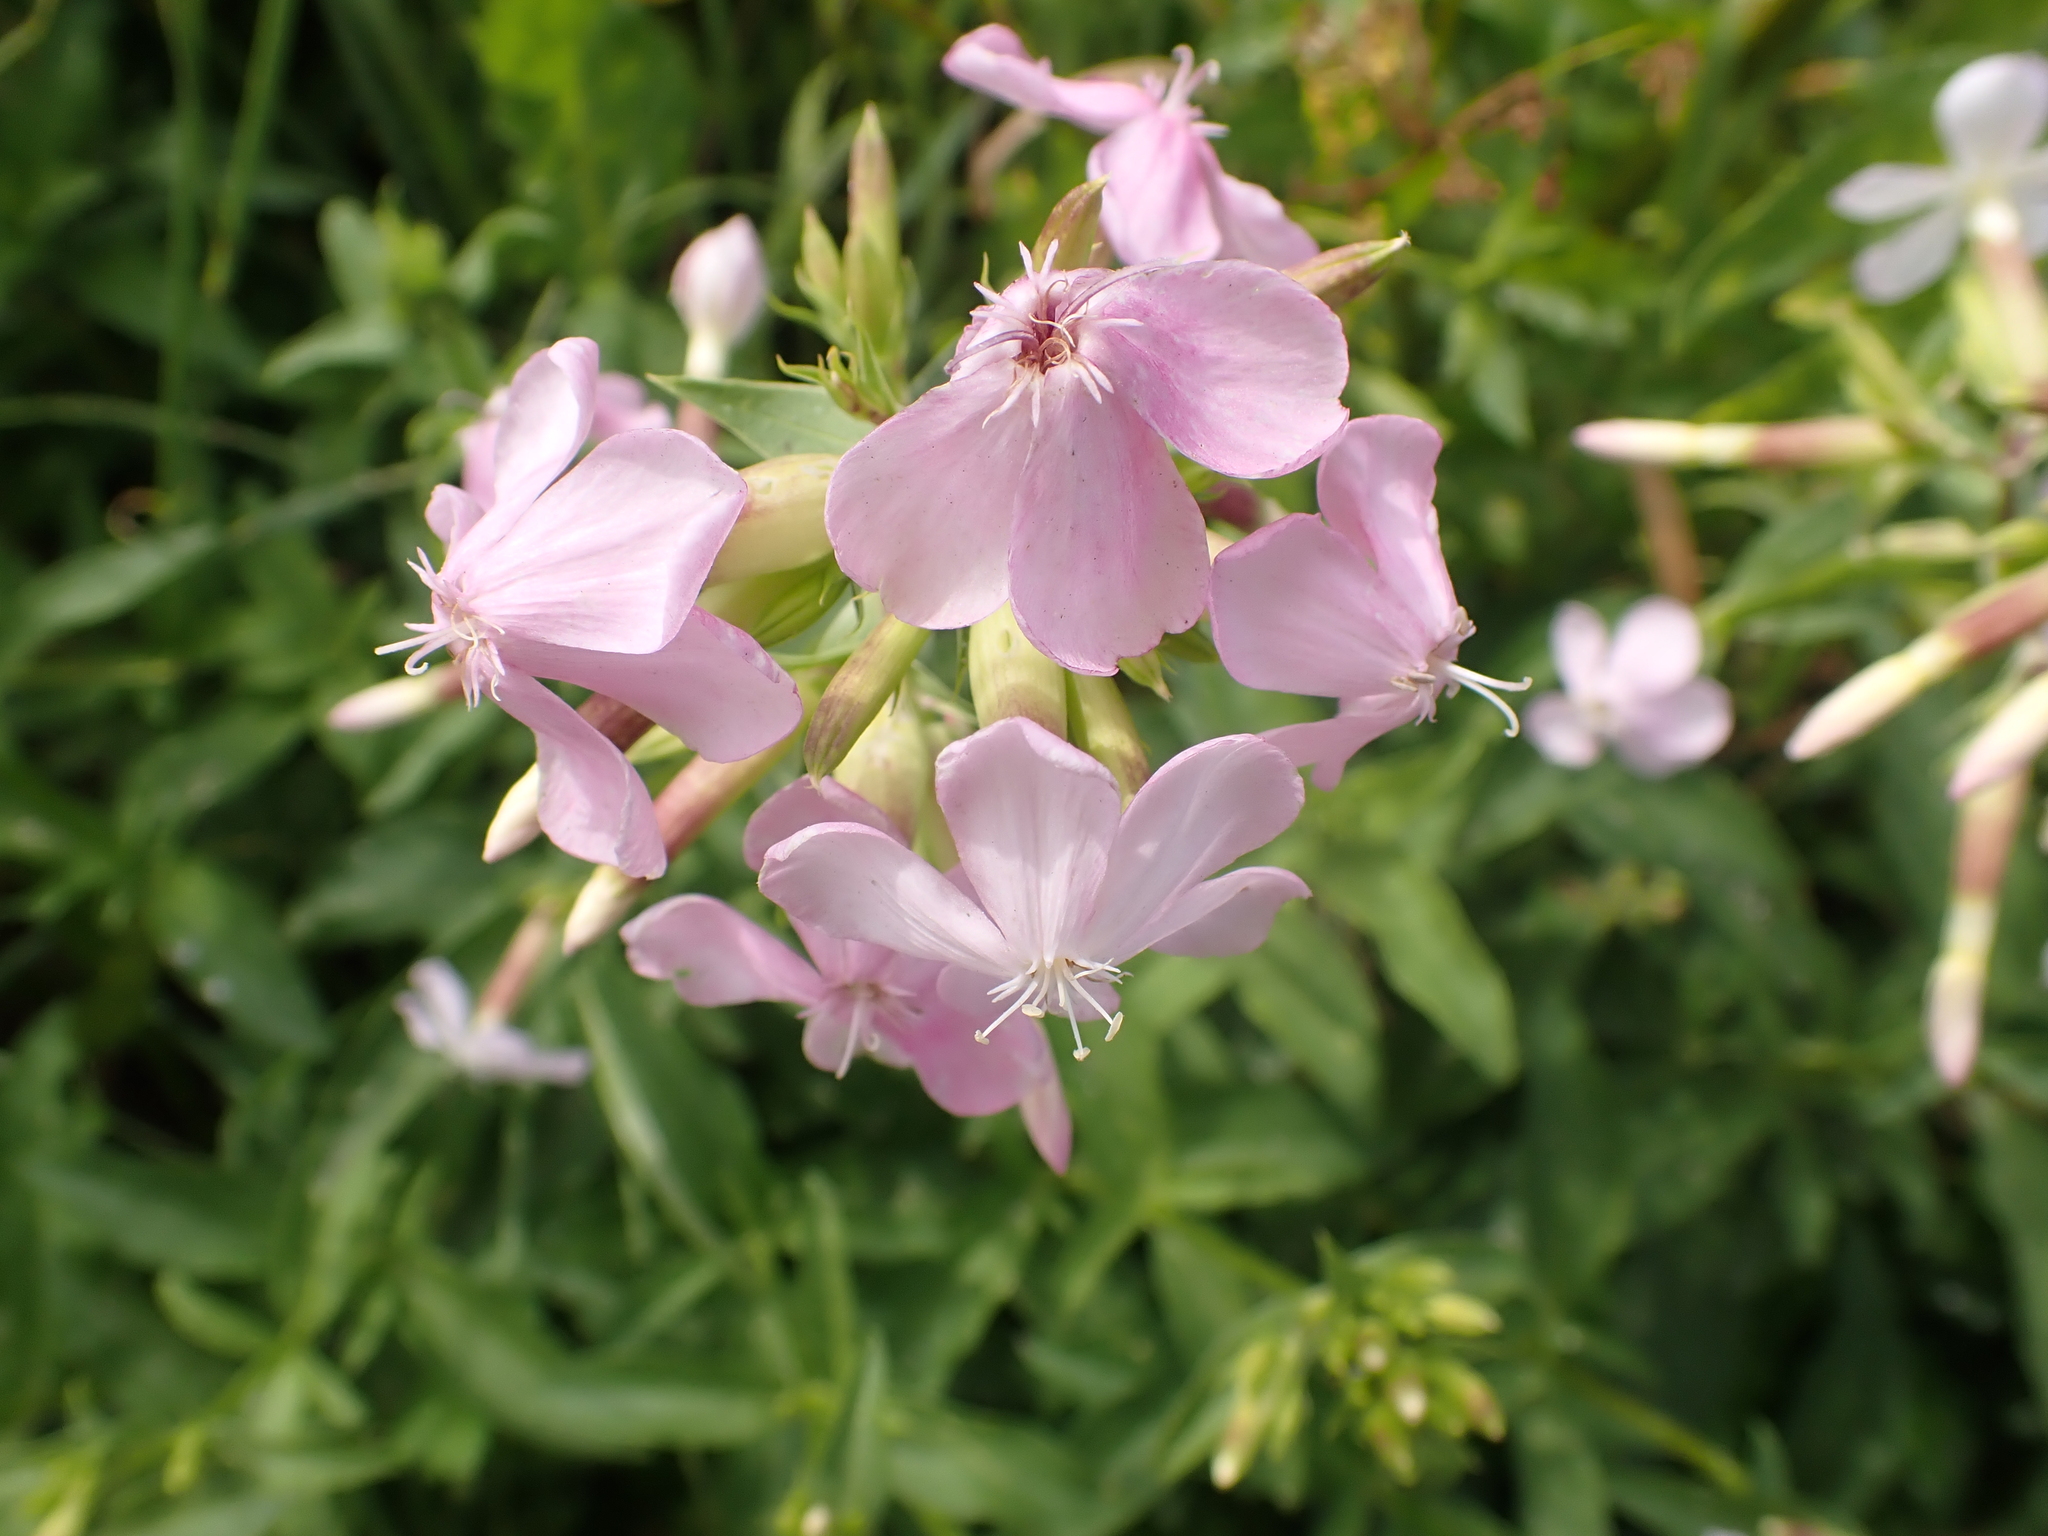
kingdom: Plantae
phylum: Tracheophyta
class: Magnoliopsida
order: Caryophyllales
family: Caryophyllaceae
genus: Saponaria
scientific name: Saponaria officinalis
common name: Soapwort
